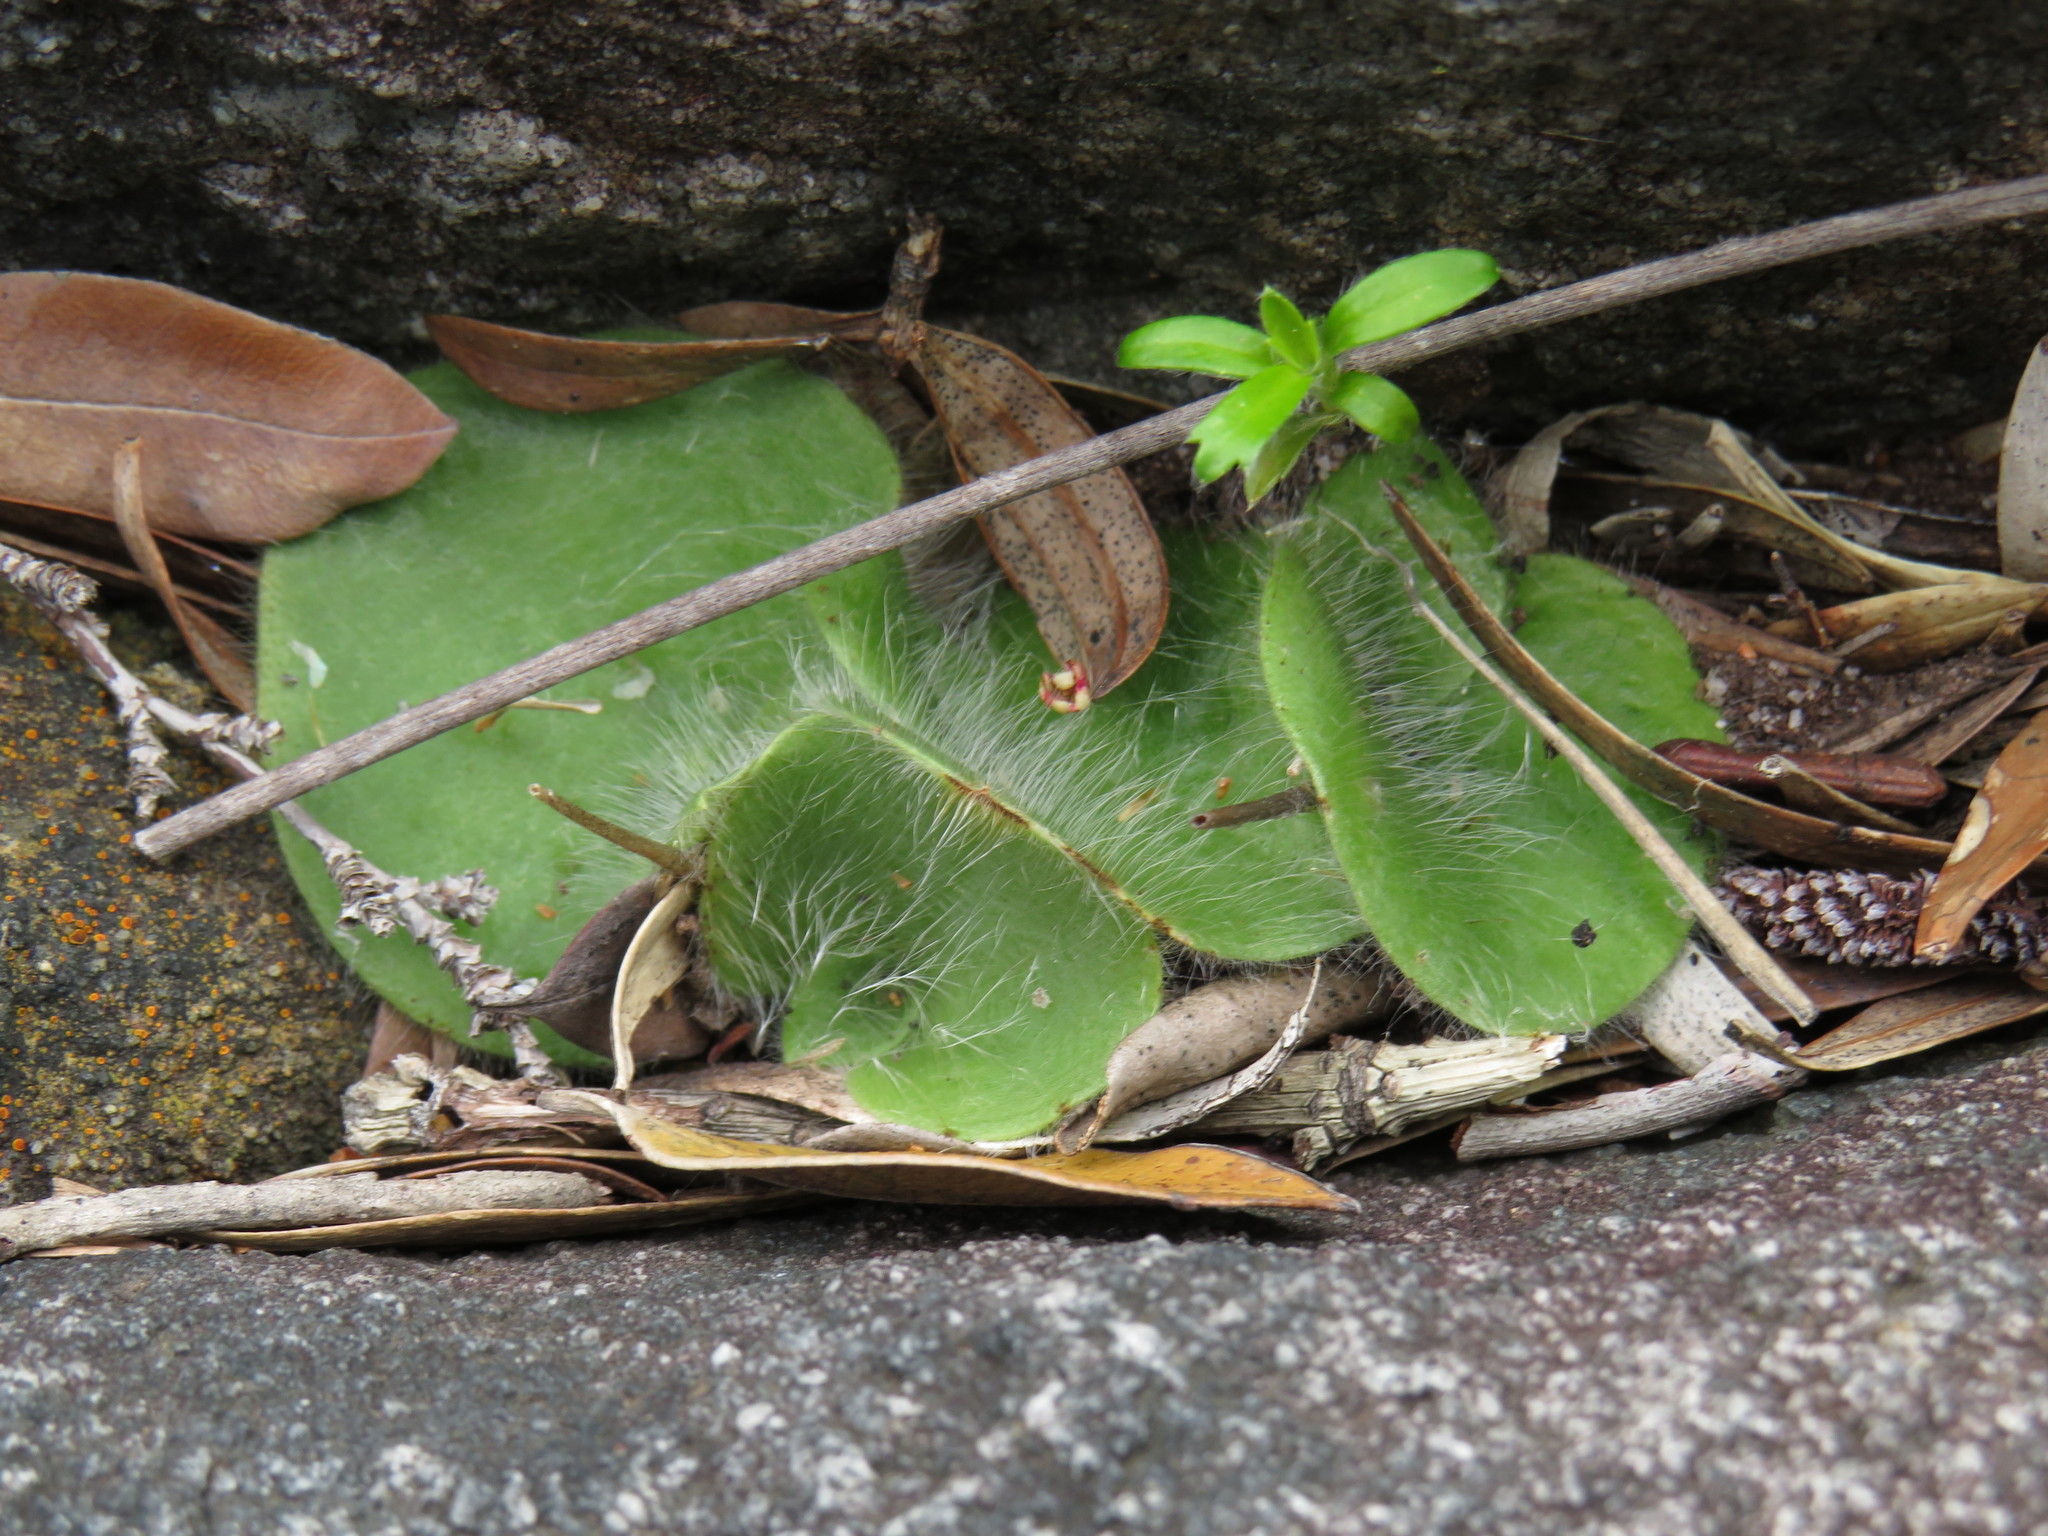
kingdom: Plantae
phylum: Tracheophyta
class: Liliopsida
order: Asparagales
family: Orchidaceae
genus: Holothrix
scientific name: Holothrix villosa
